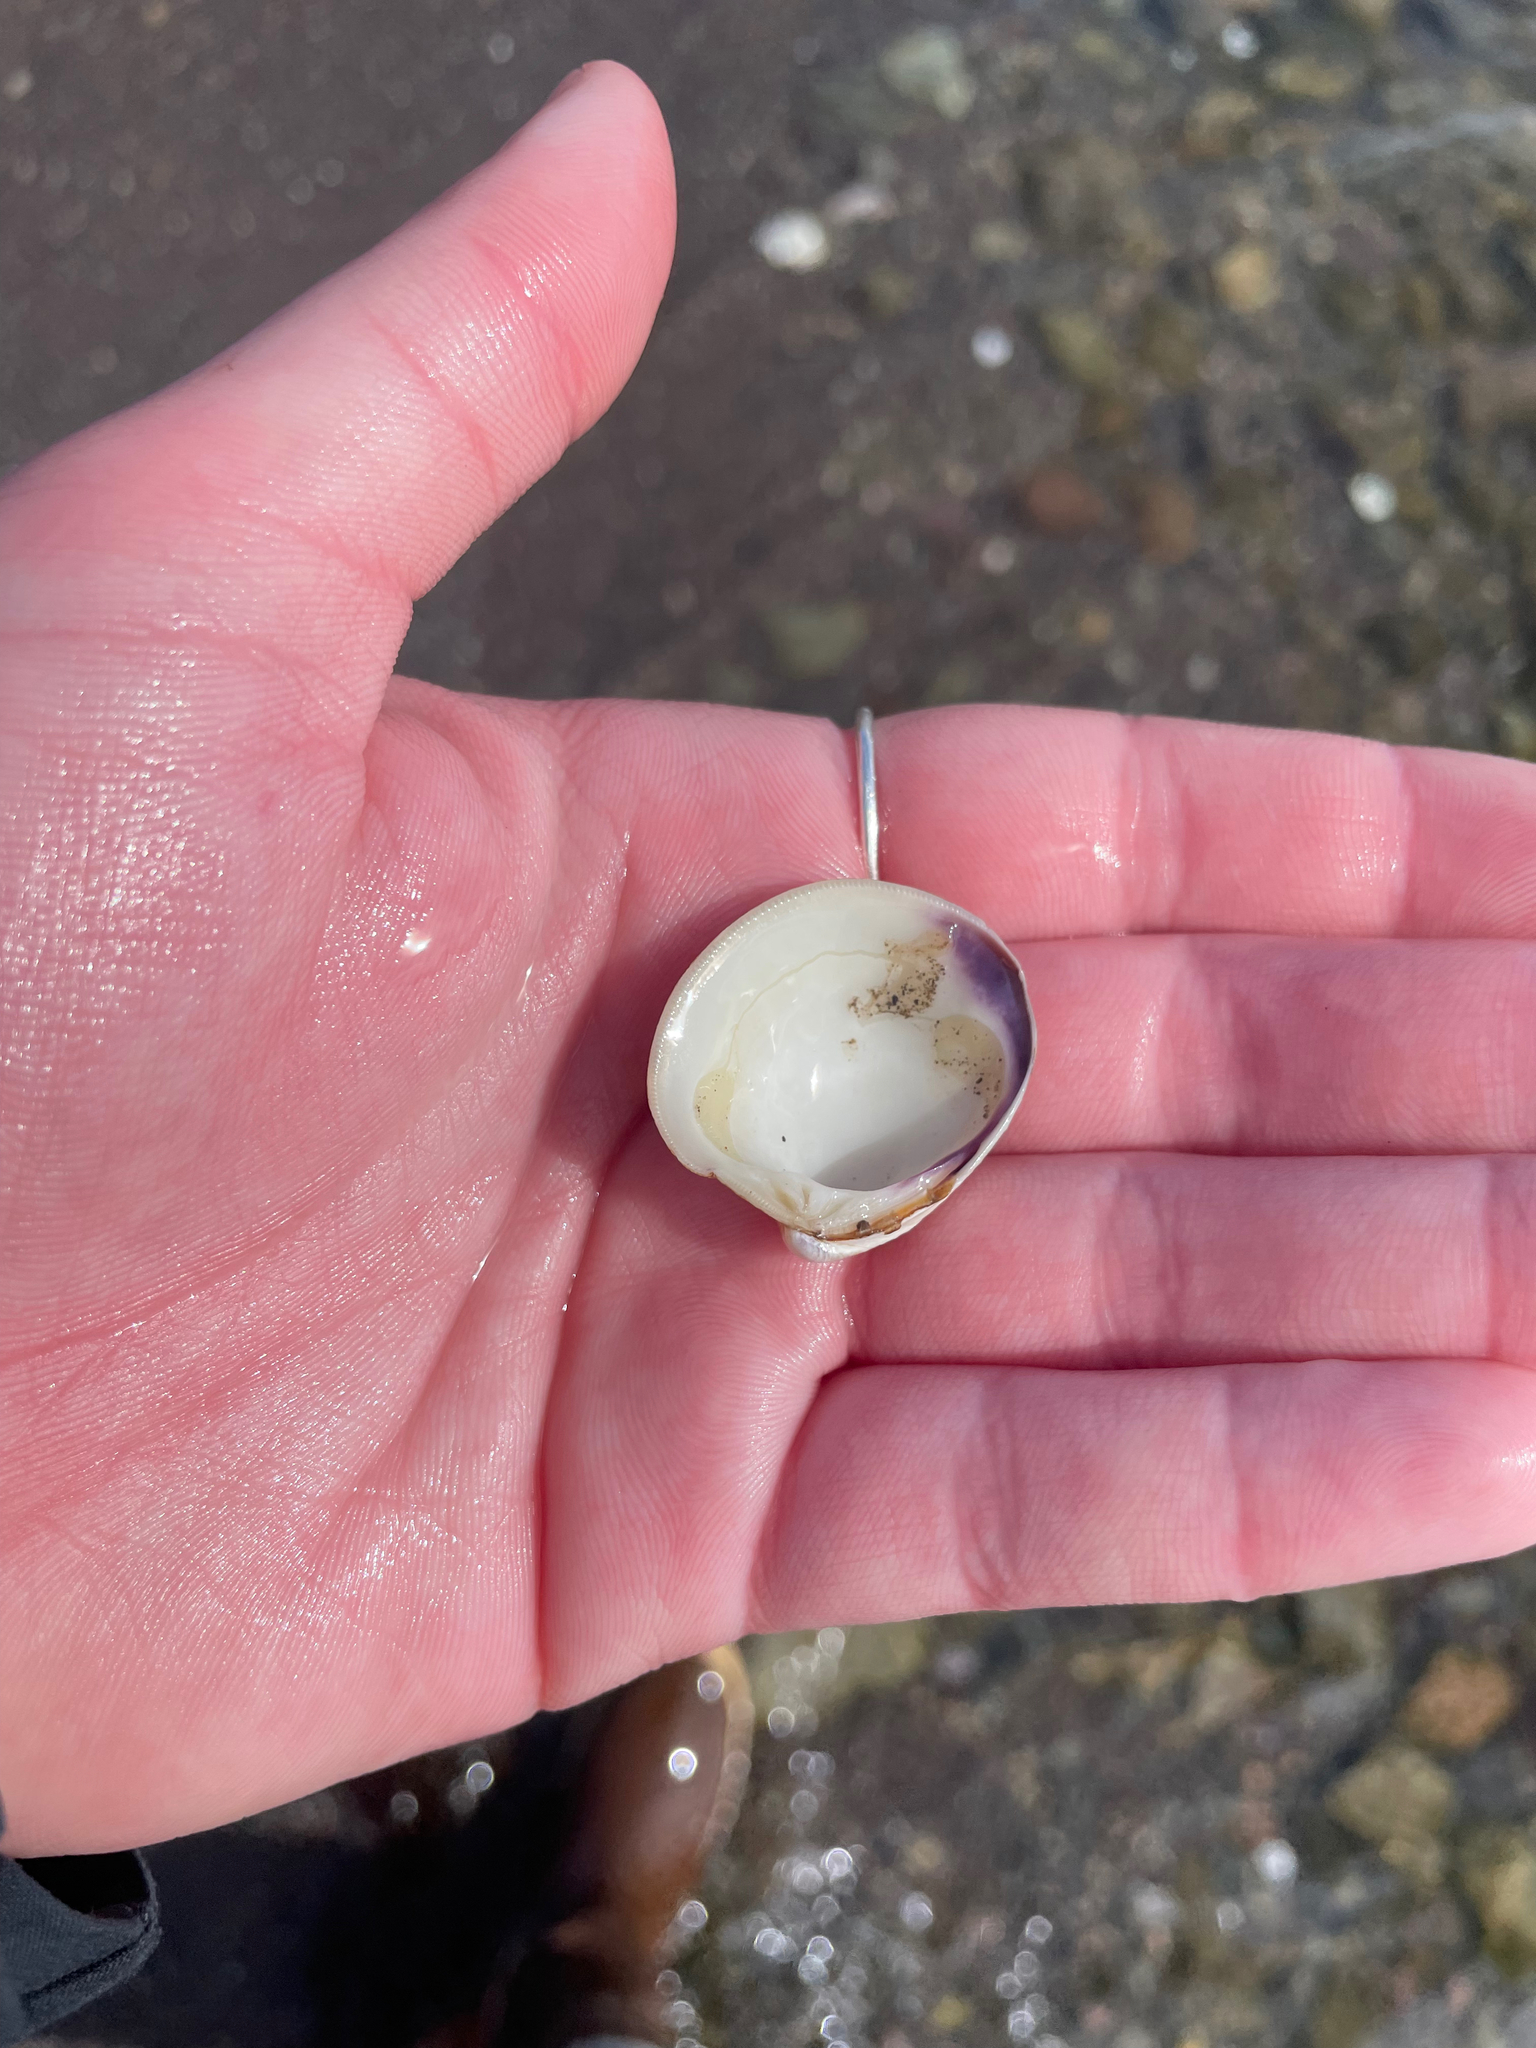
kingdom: Animalia
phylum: Mollusca
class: Bivalvia
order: Venerida
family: Veneridae
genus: Mercenaria
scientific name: Mercenaria mercenaria
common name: American hard-shelled clam
